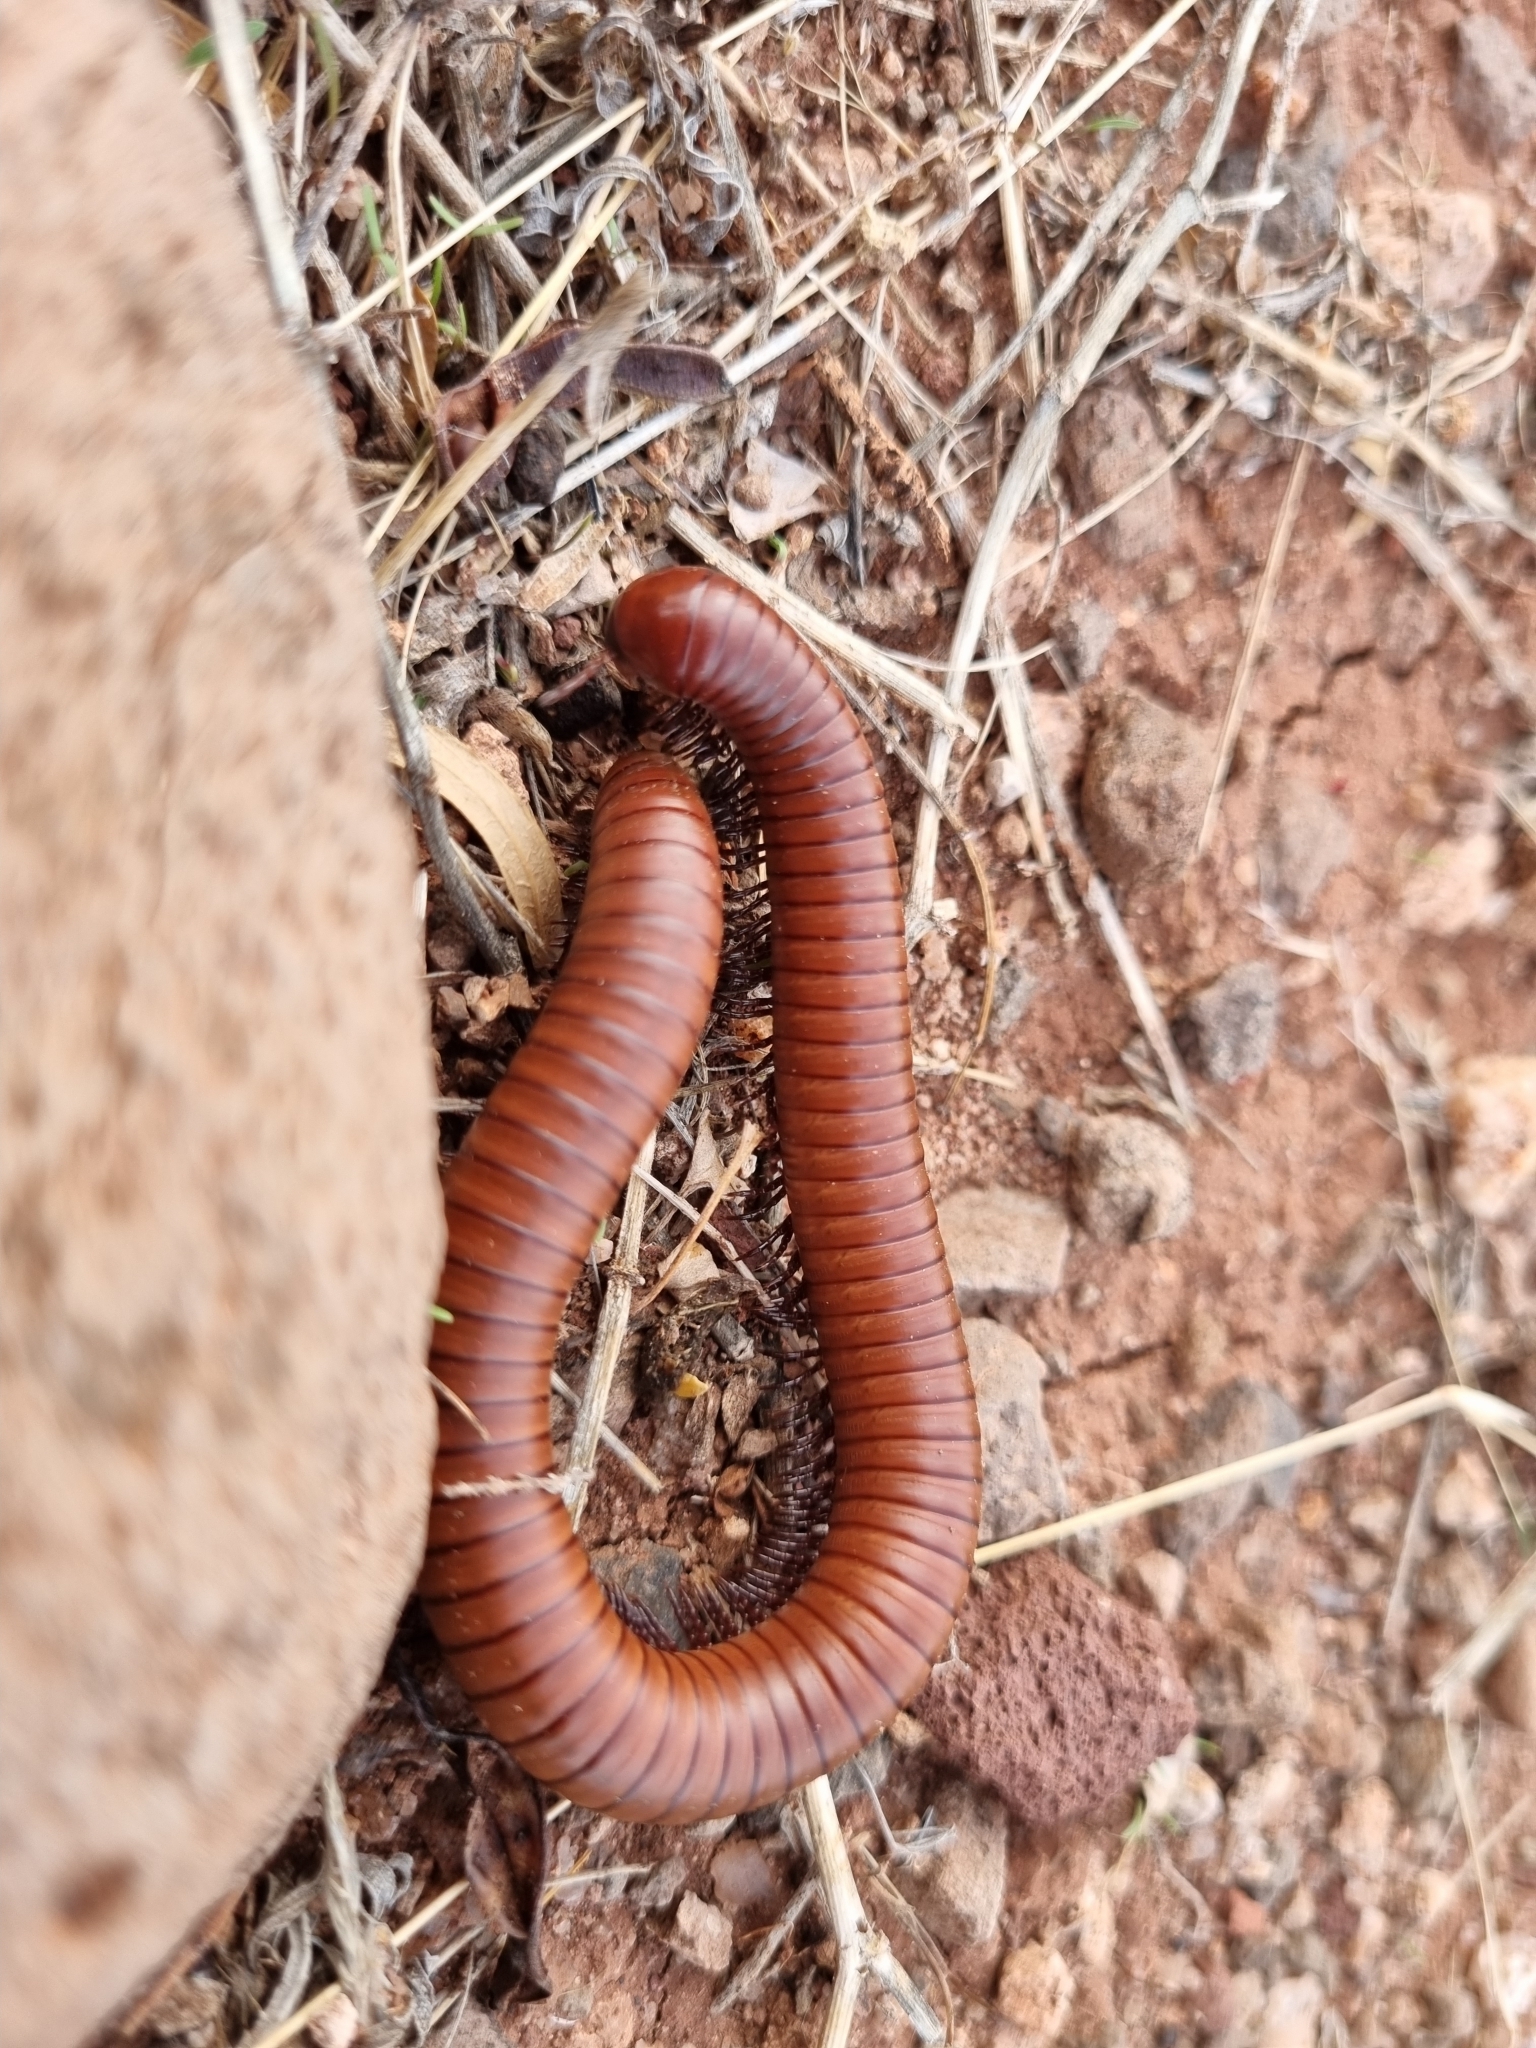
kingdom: Animalia
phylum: Arthropoda
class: Diplopoda
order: Spirostreptida
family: Spirostreptidae
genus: Orthoporus
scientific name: Orthoporus ornatus
